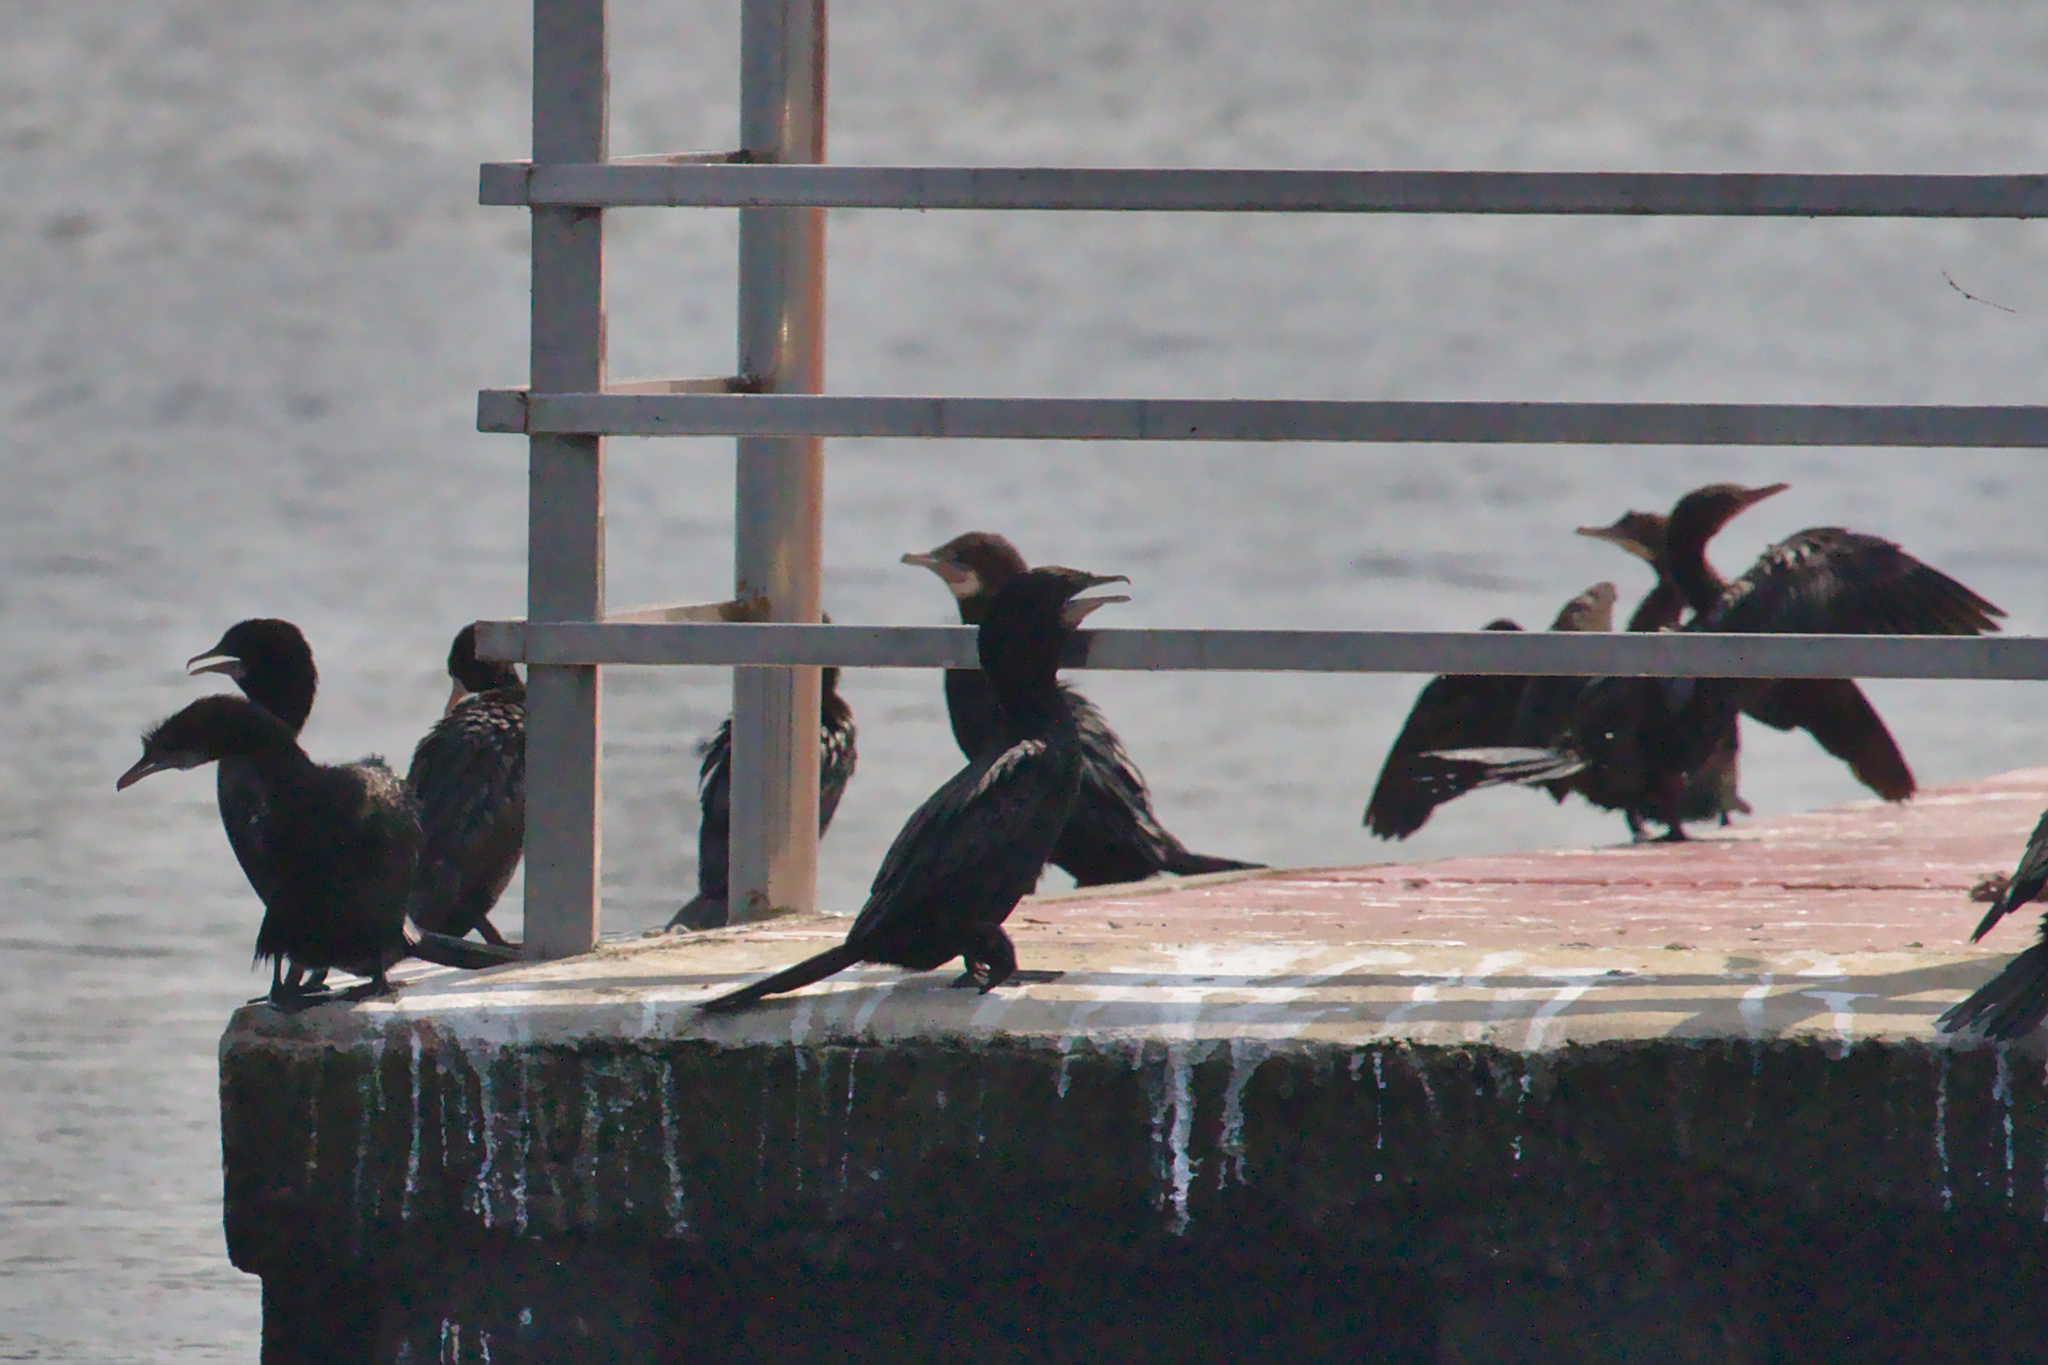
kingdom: Animalia
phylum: Chordata
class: Aves
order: Suliformes
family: Phalacrocoracidae
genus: Microcarbo
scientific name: Microcarbo niger
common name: Little cormorant
